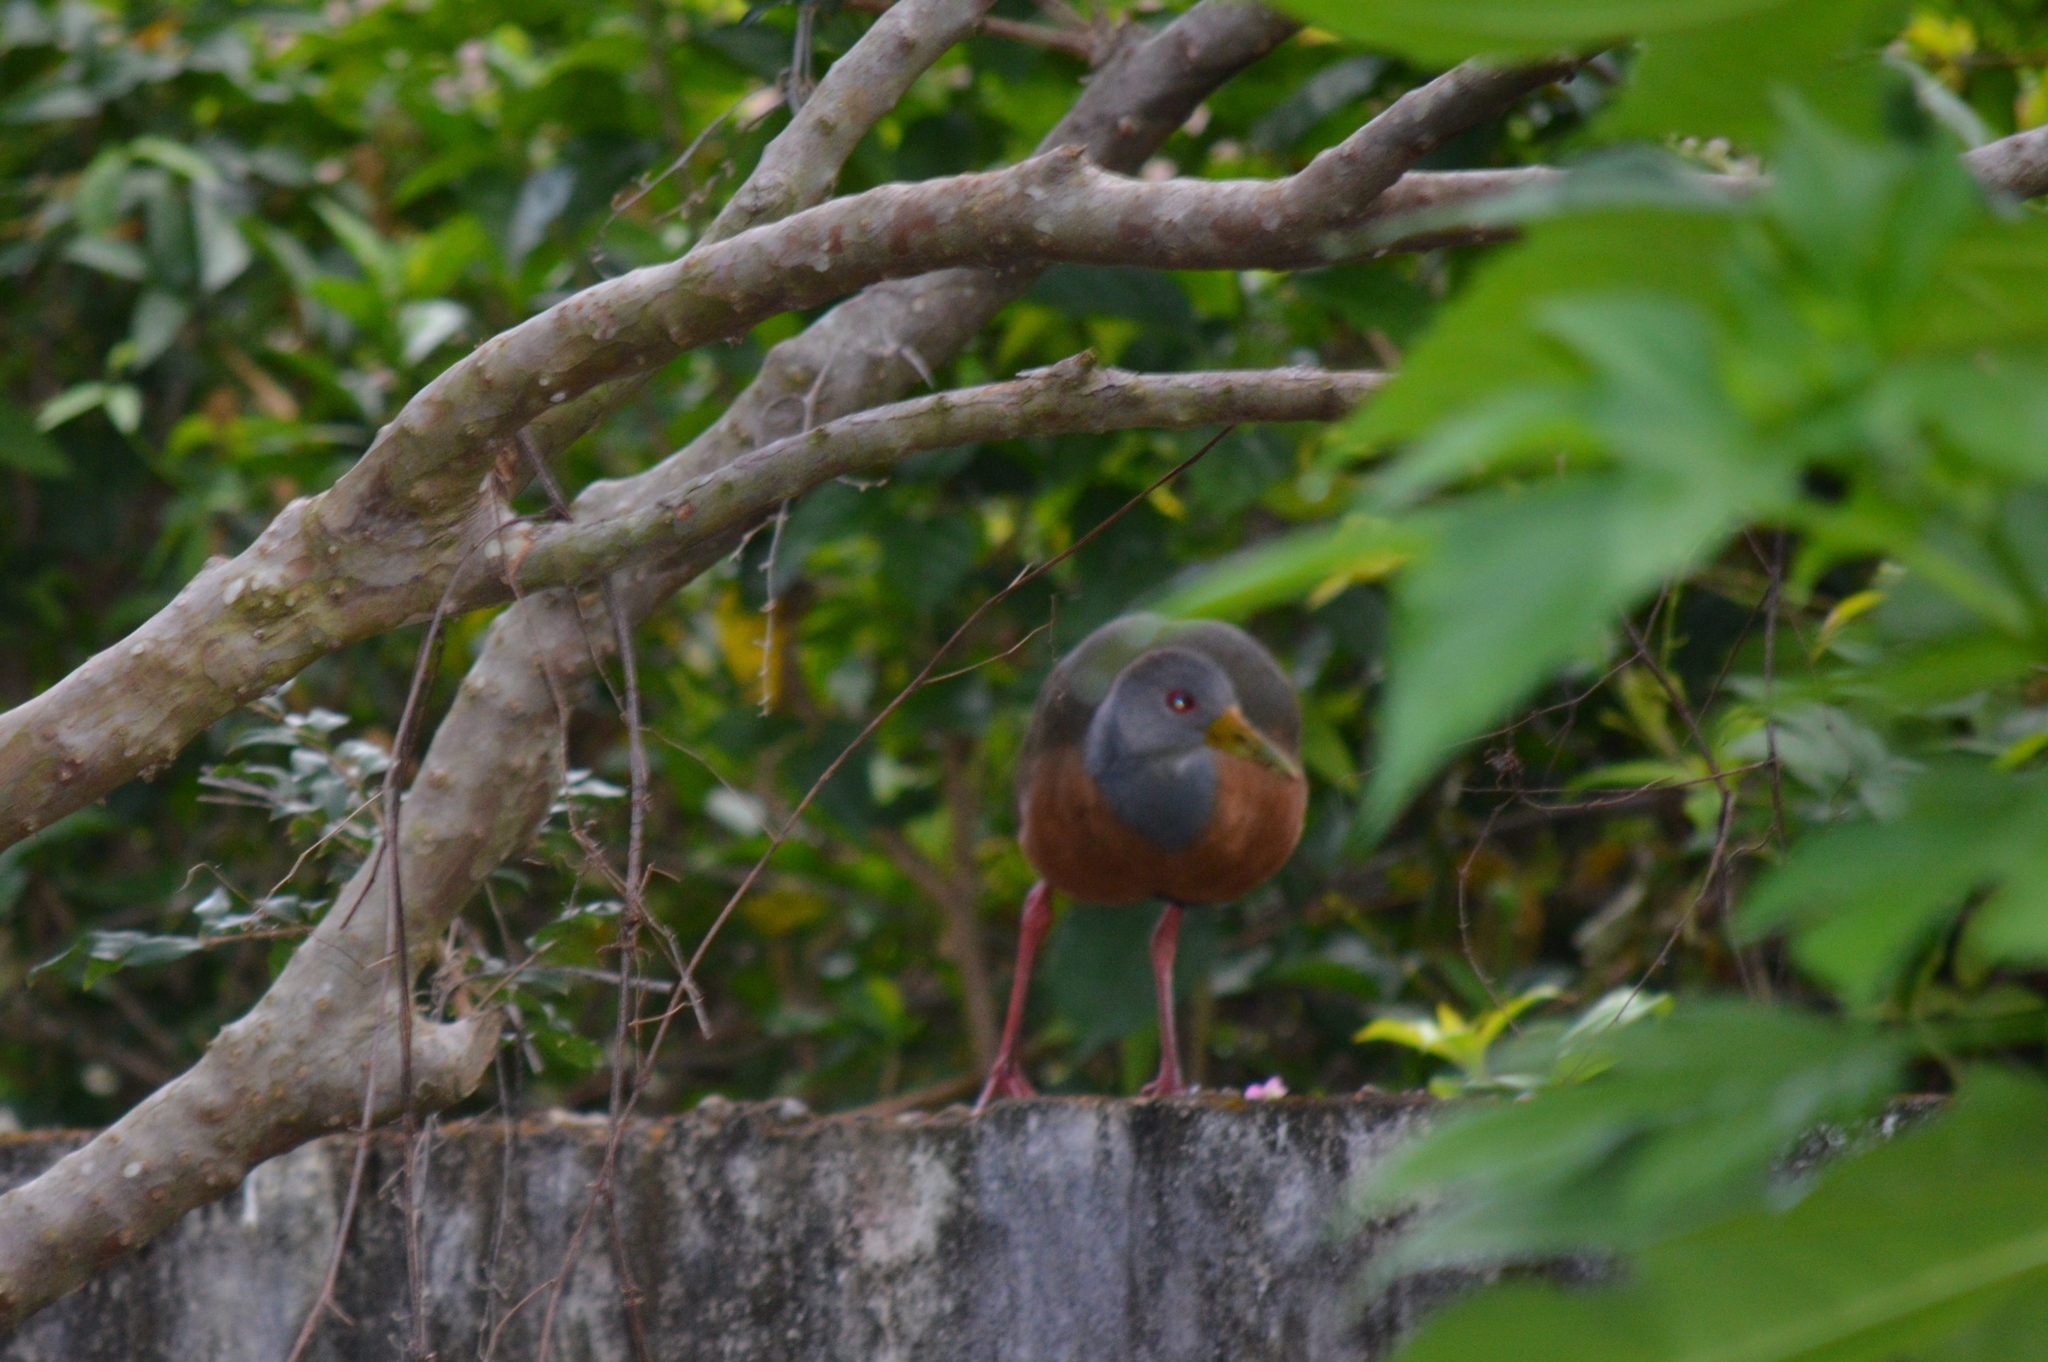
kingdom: Animalia
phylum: Chordata
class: Aves
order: Gruiformes
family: Rallidae
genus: Aramides
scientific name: Aramides cajanea
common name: Gray-necked wood-rail
